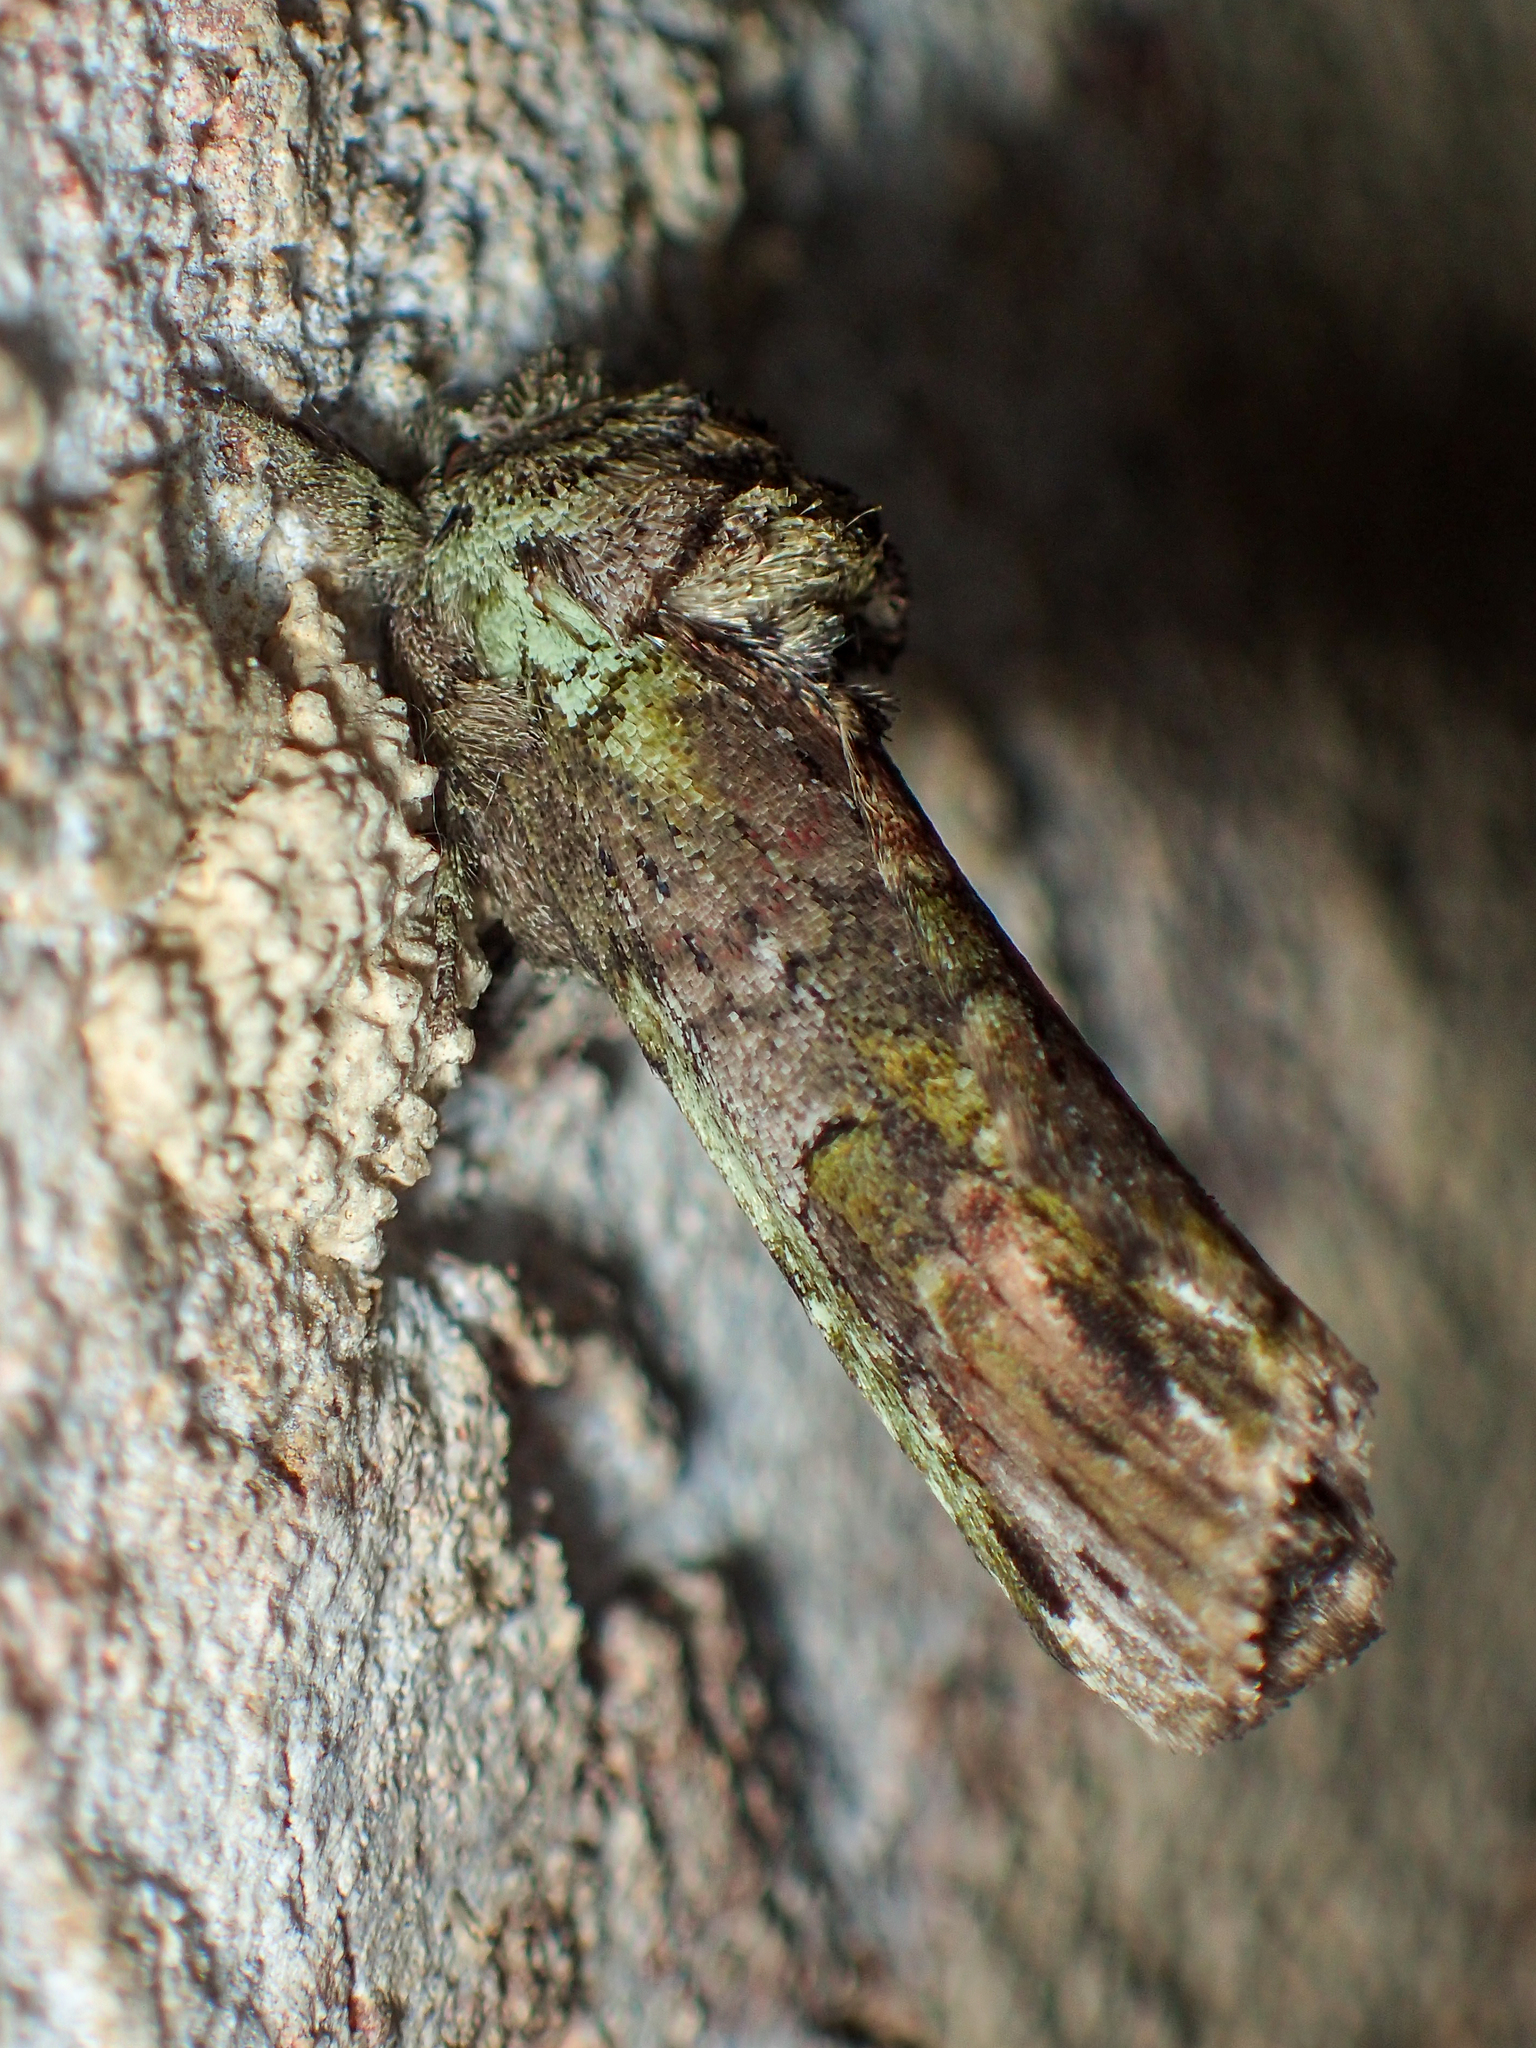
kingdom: Animalia
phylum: Arthropoda
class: Insecta
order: Lepidoptera
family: Notodontidae
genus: Schizura
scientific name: Schizura
